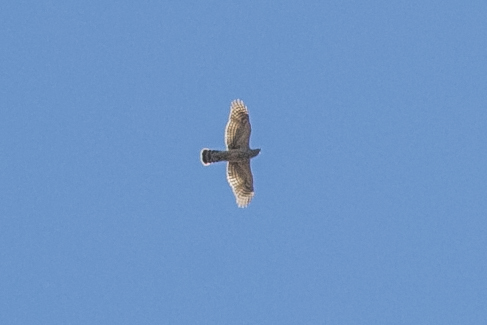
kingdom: Animalia
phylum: Chordata
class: Aves
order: Accipitriformes
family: Accipitridae
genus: Accipiter
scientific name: Accipiter gentilis
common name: Northern goshawk
